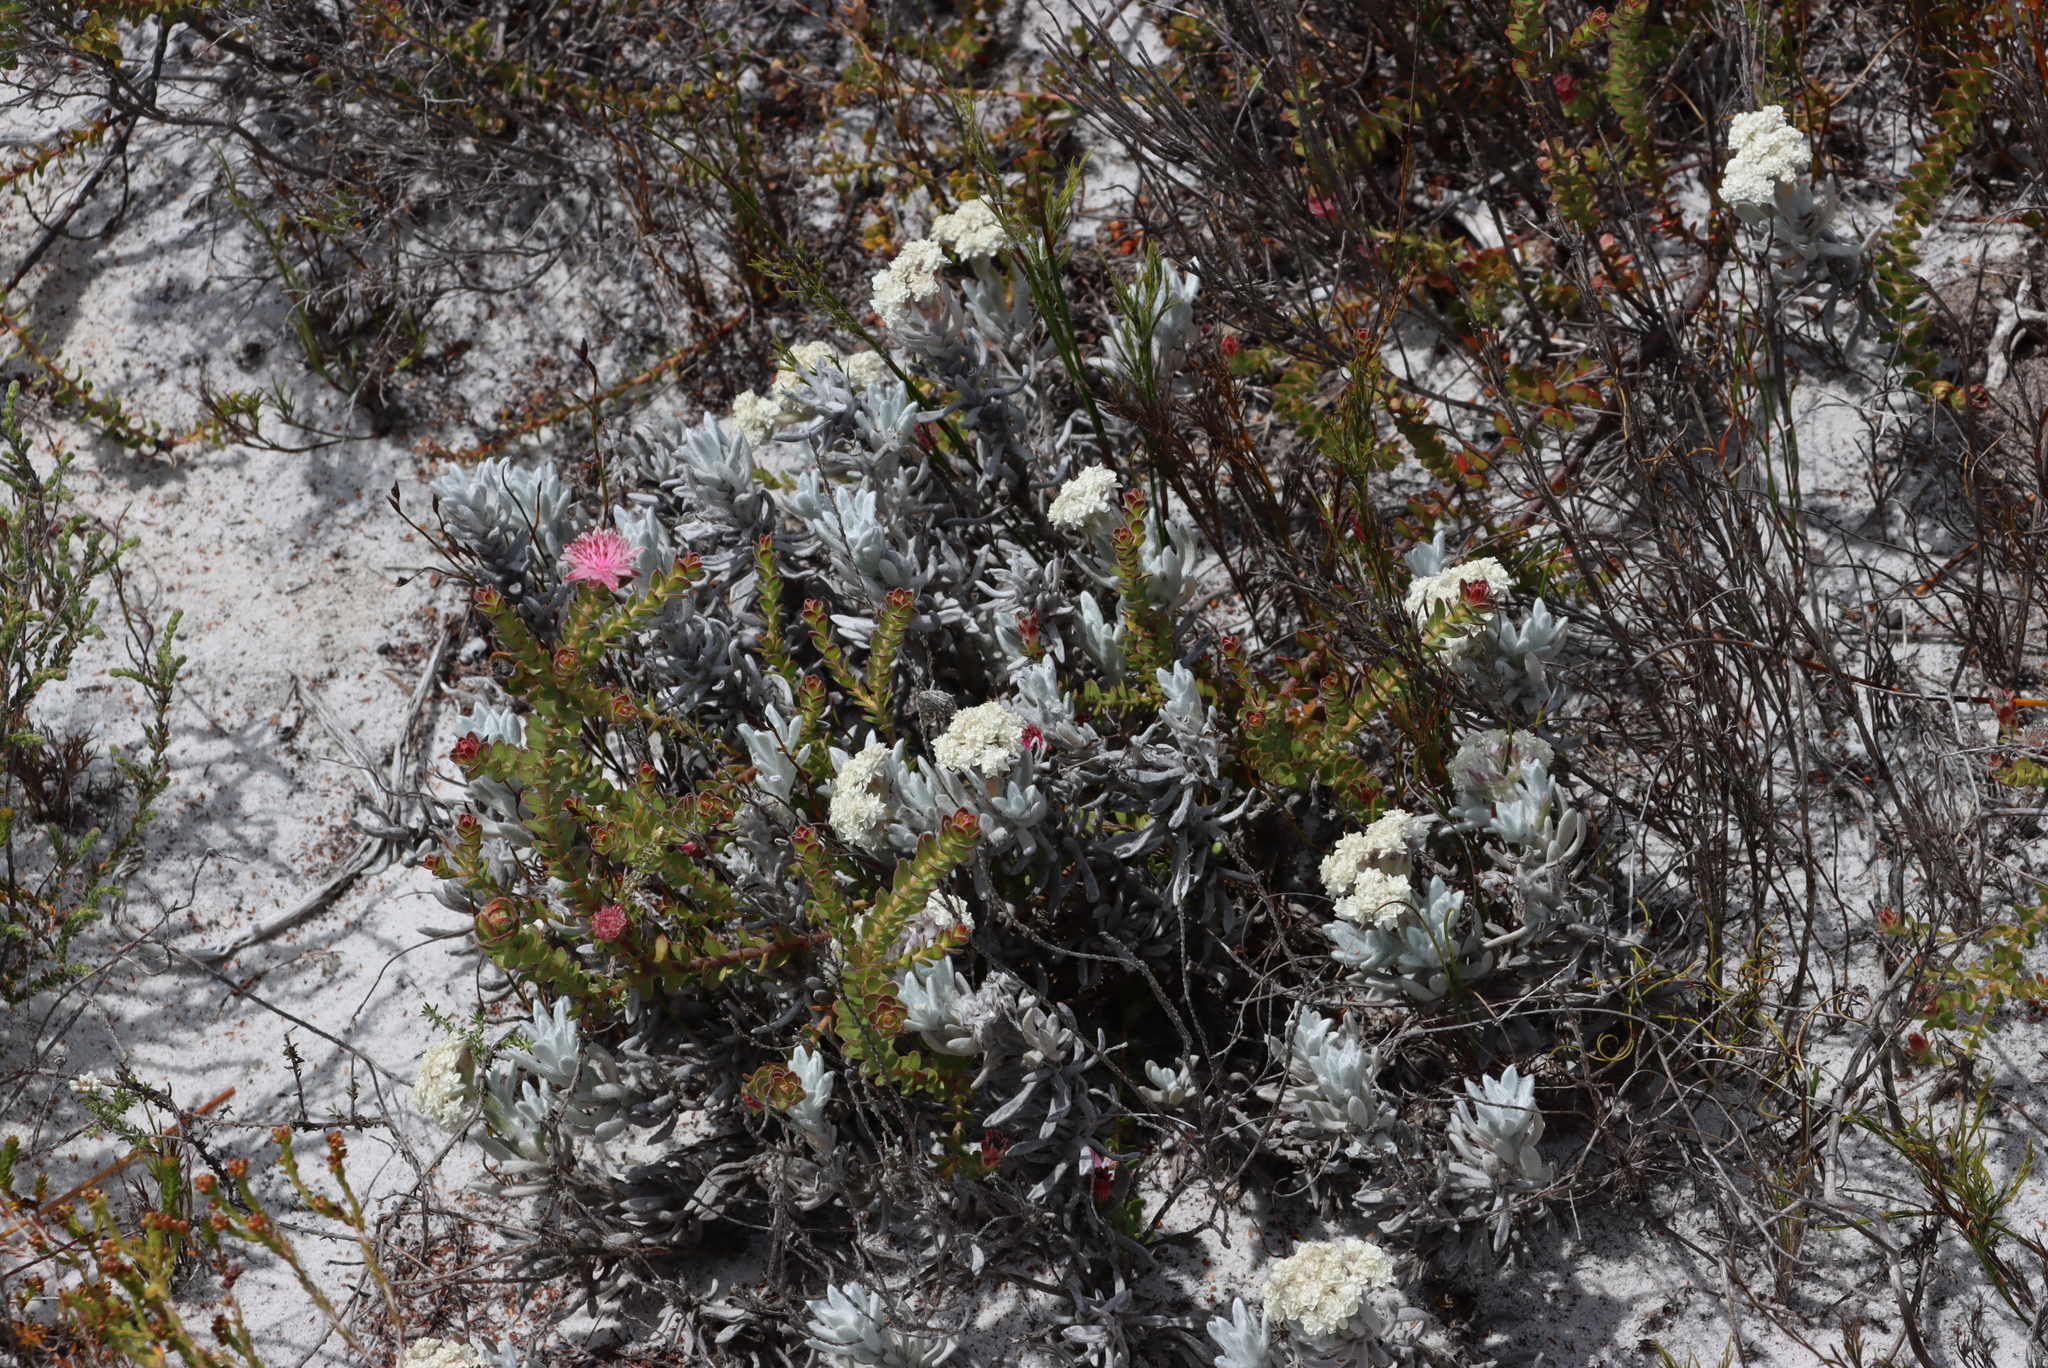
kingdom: Plantae
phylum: Tracheophyta
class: Magnoliopsida
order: Asterales
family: Asteraceae
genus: Petalacte
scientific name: Petalacte coronata
